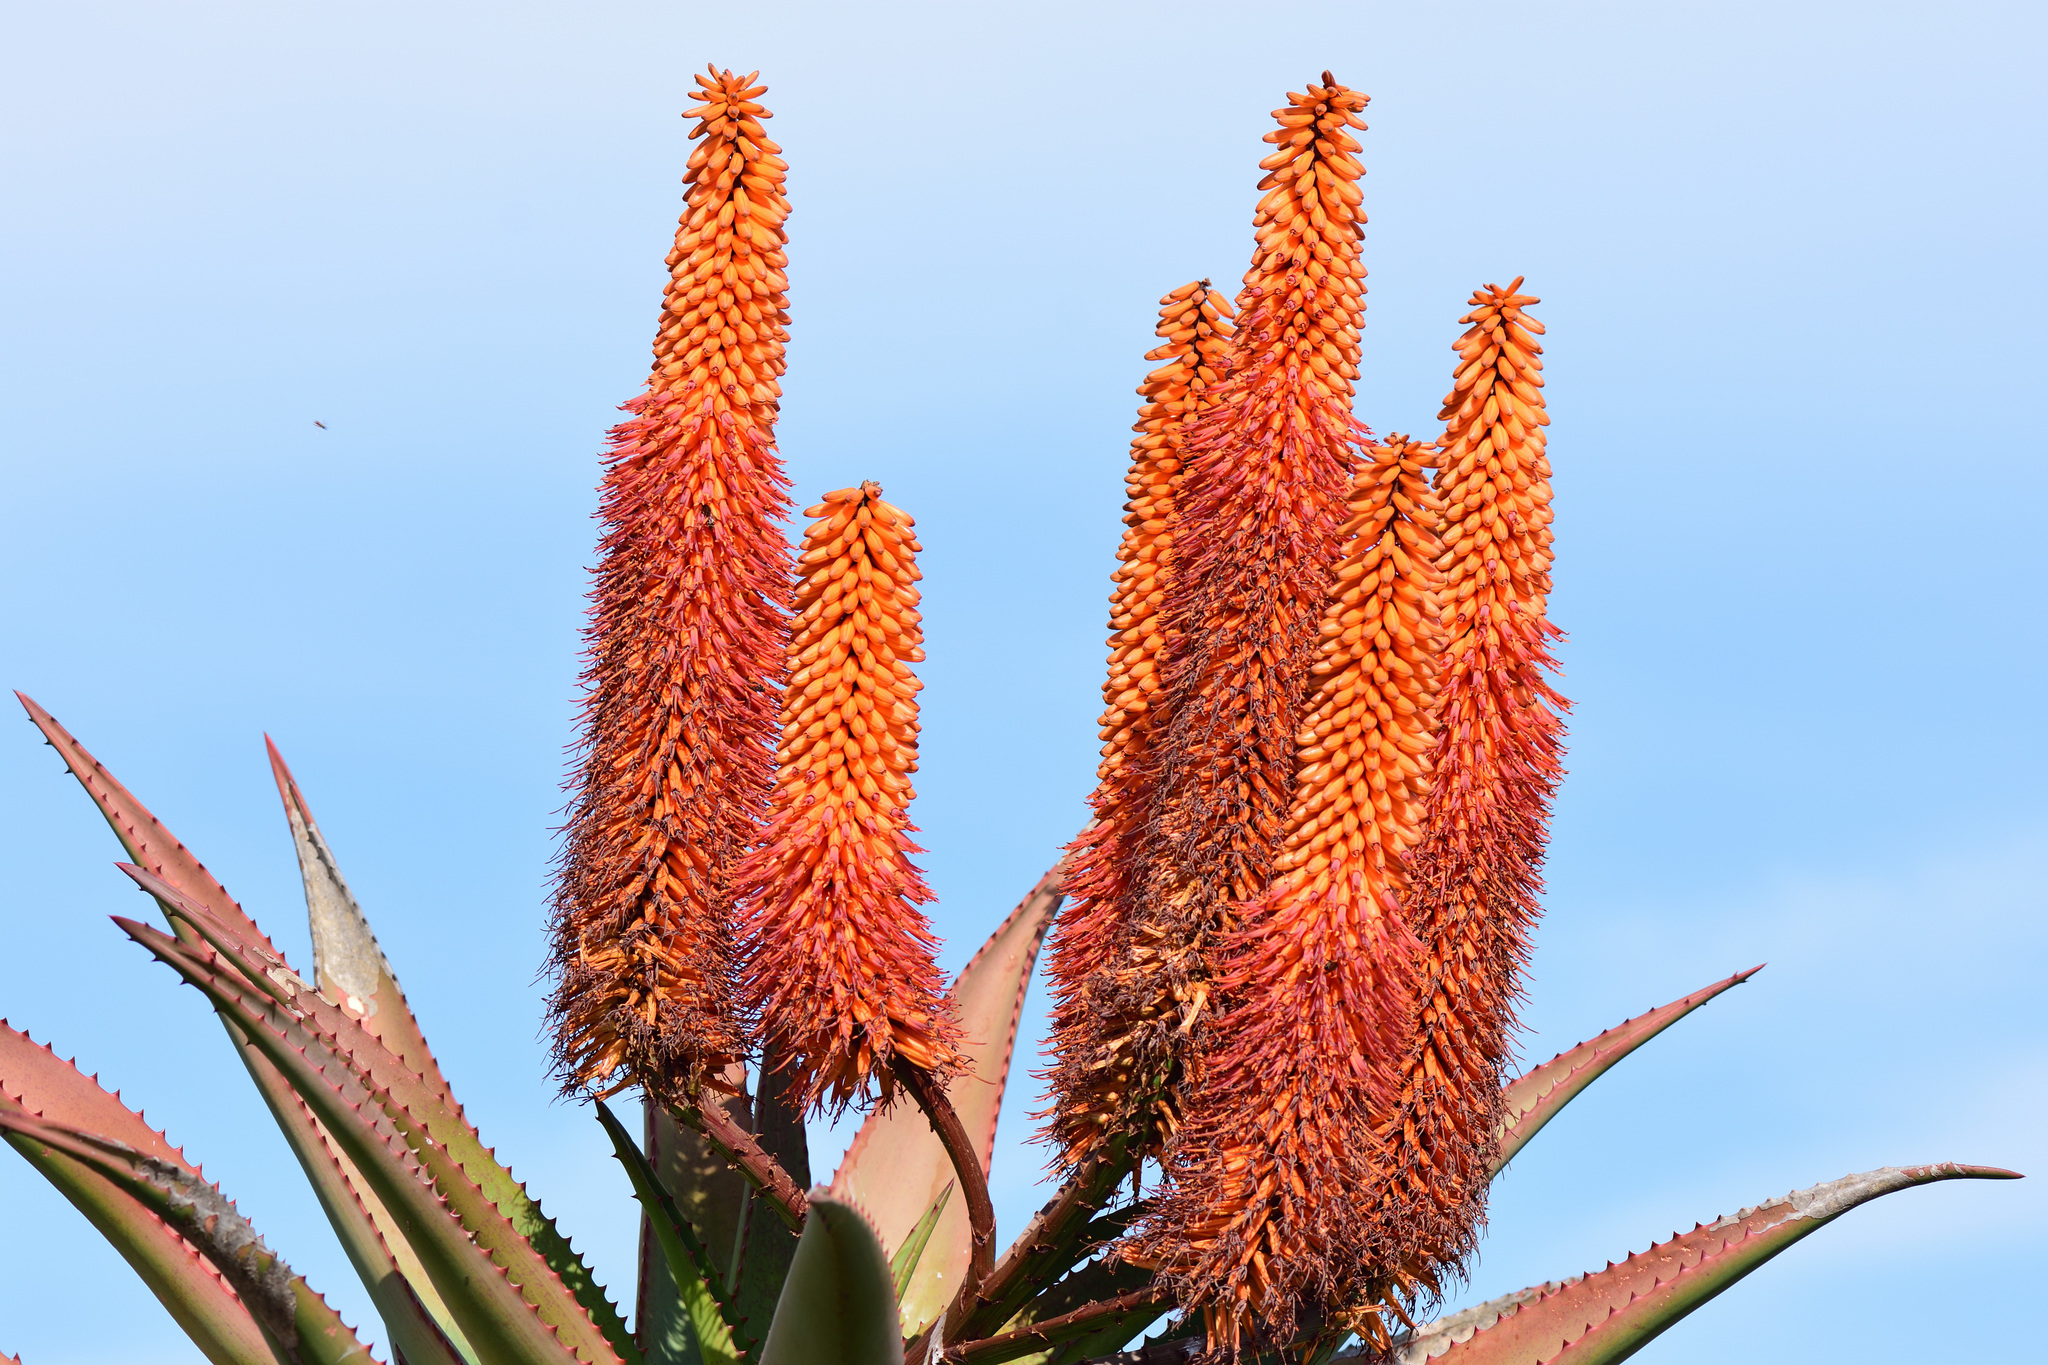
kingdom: Plantae
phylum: Tracheophyta
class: Liliopsida
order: Asparagales
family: Asphodelaceae
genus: Aloe
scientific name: Aloe ferox
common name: Bitter aloe
